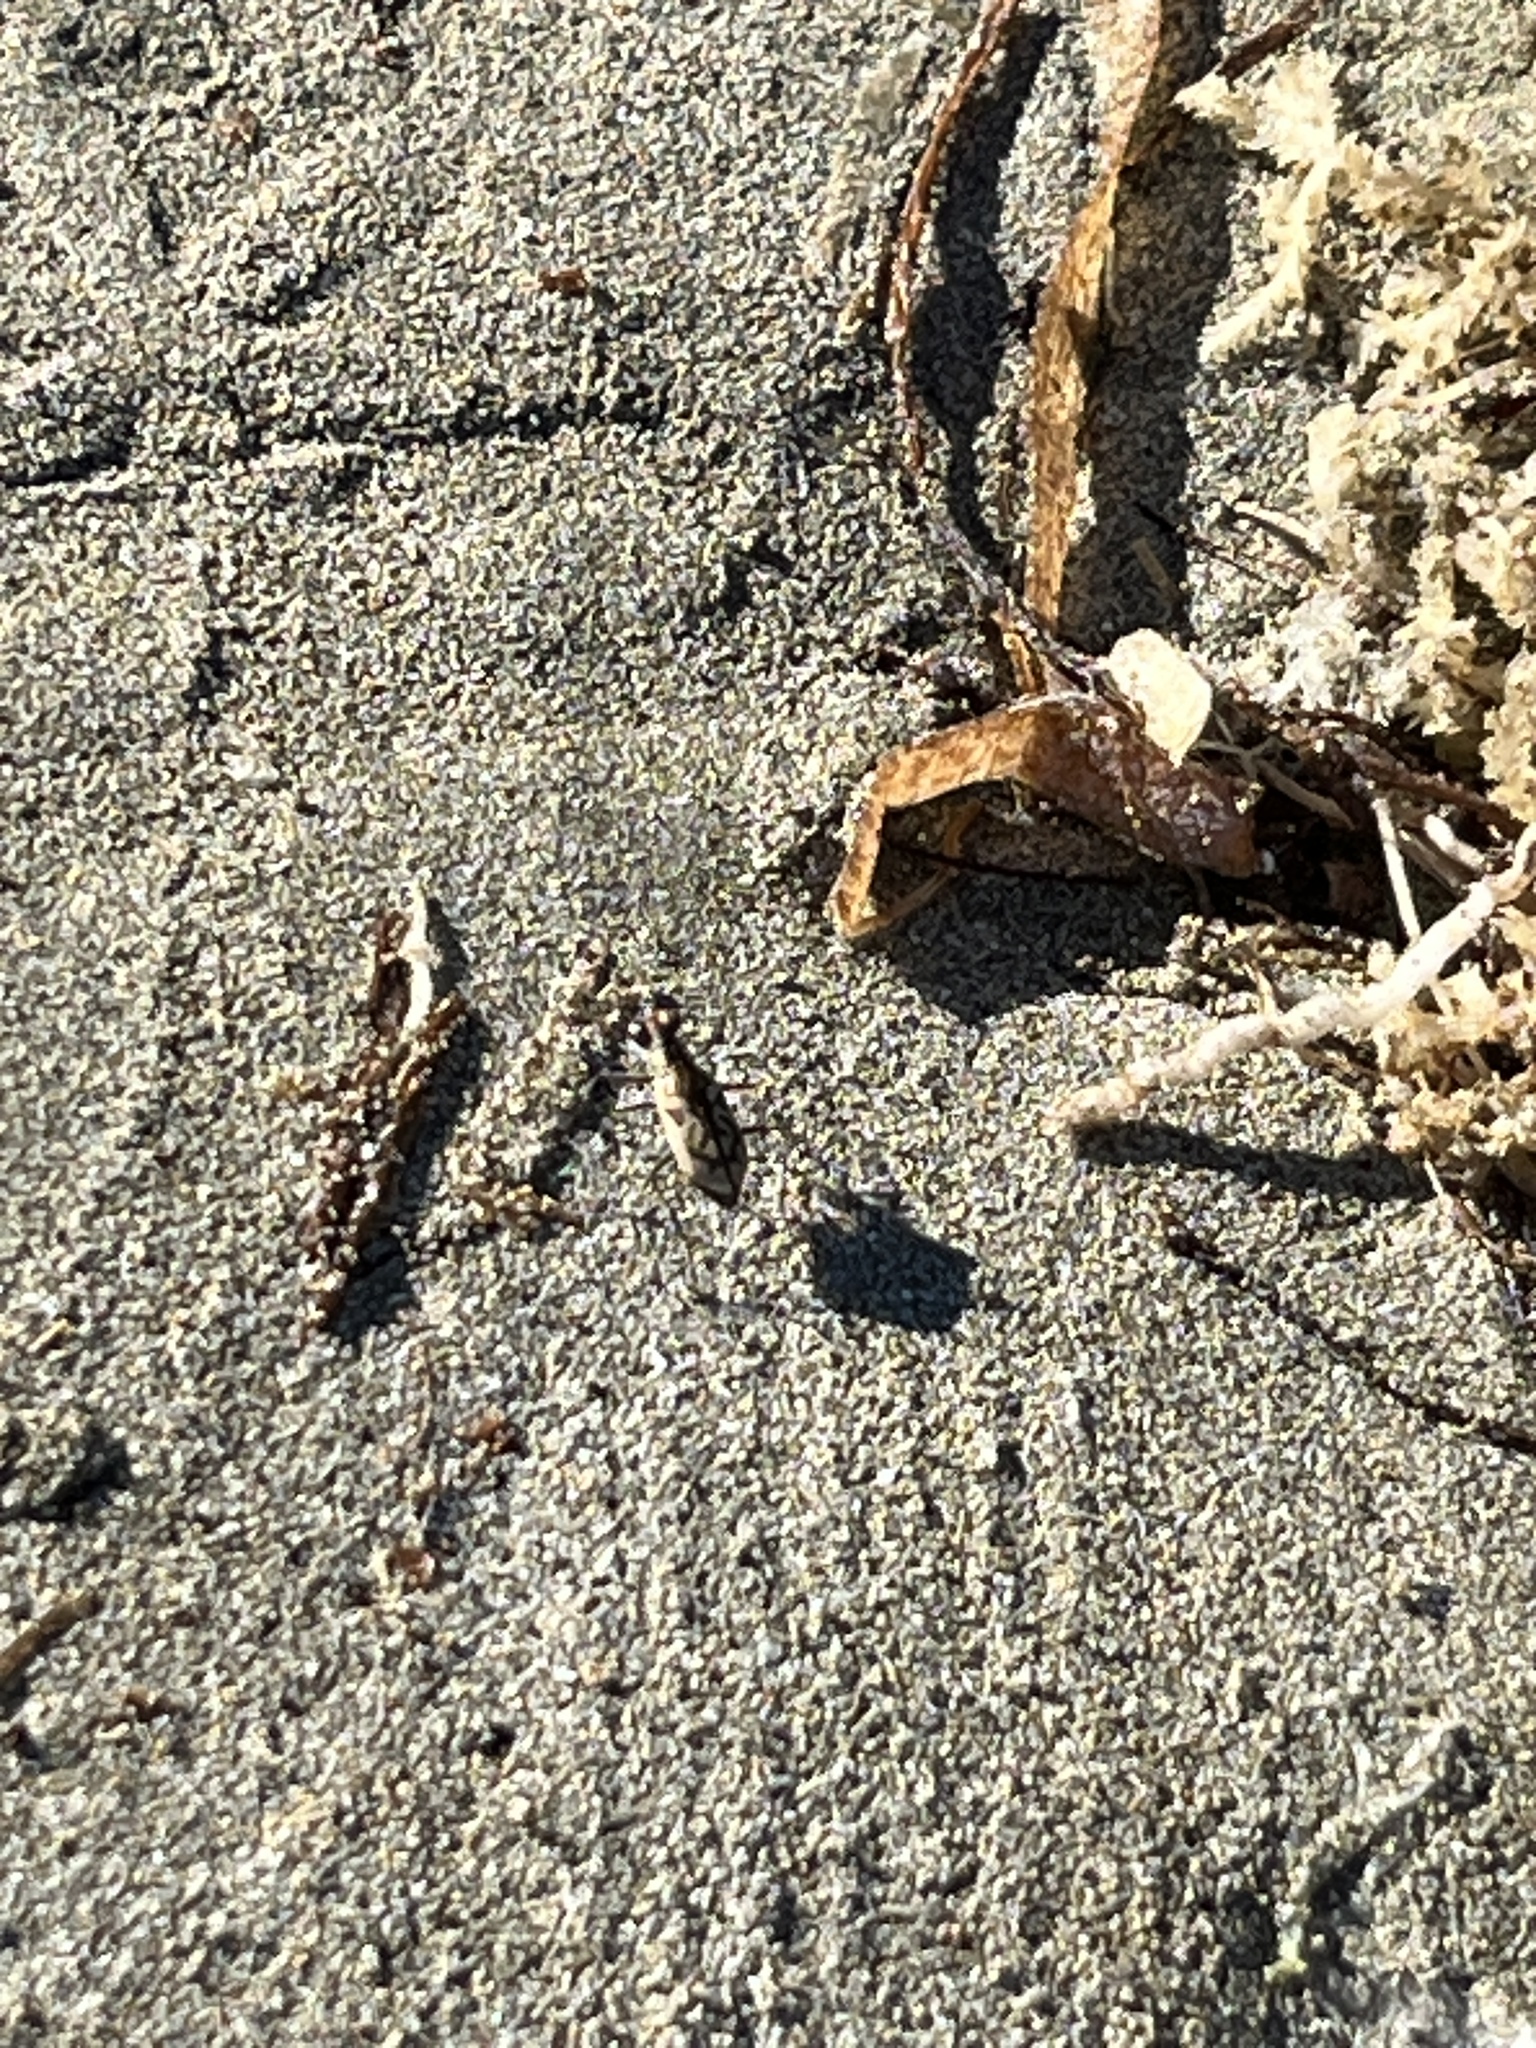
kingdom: Animalia
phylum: Arthropoda
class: Insecta
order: Coleoptera
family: Carabidae
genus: Cylindera
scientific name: Cylindera suturalis
